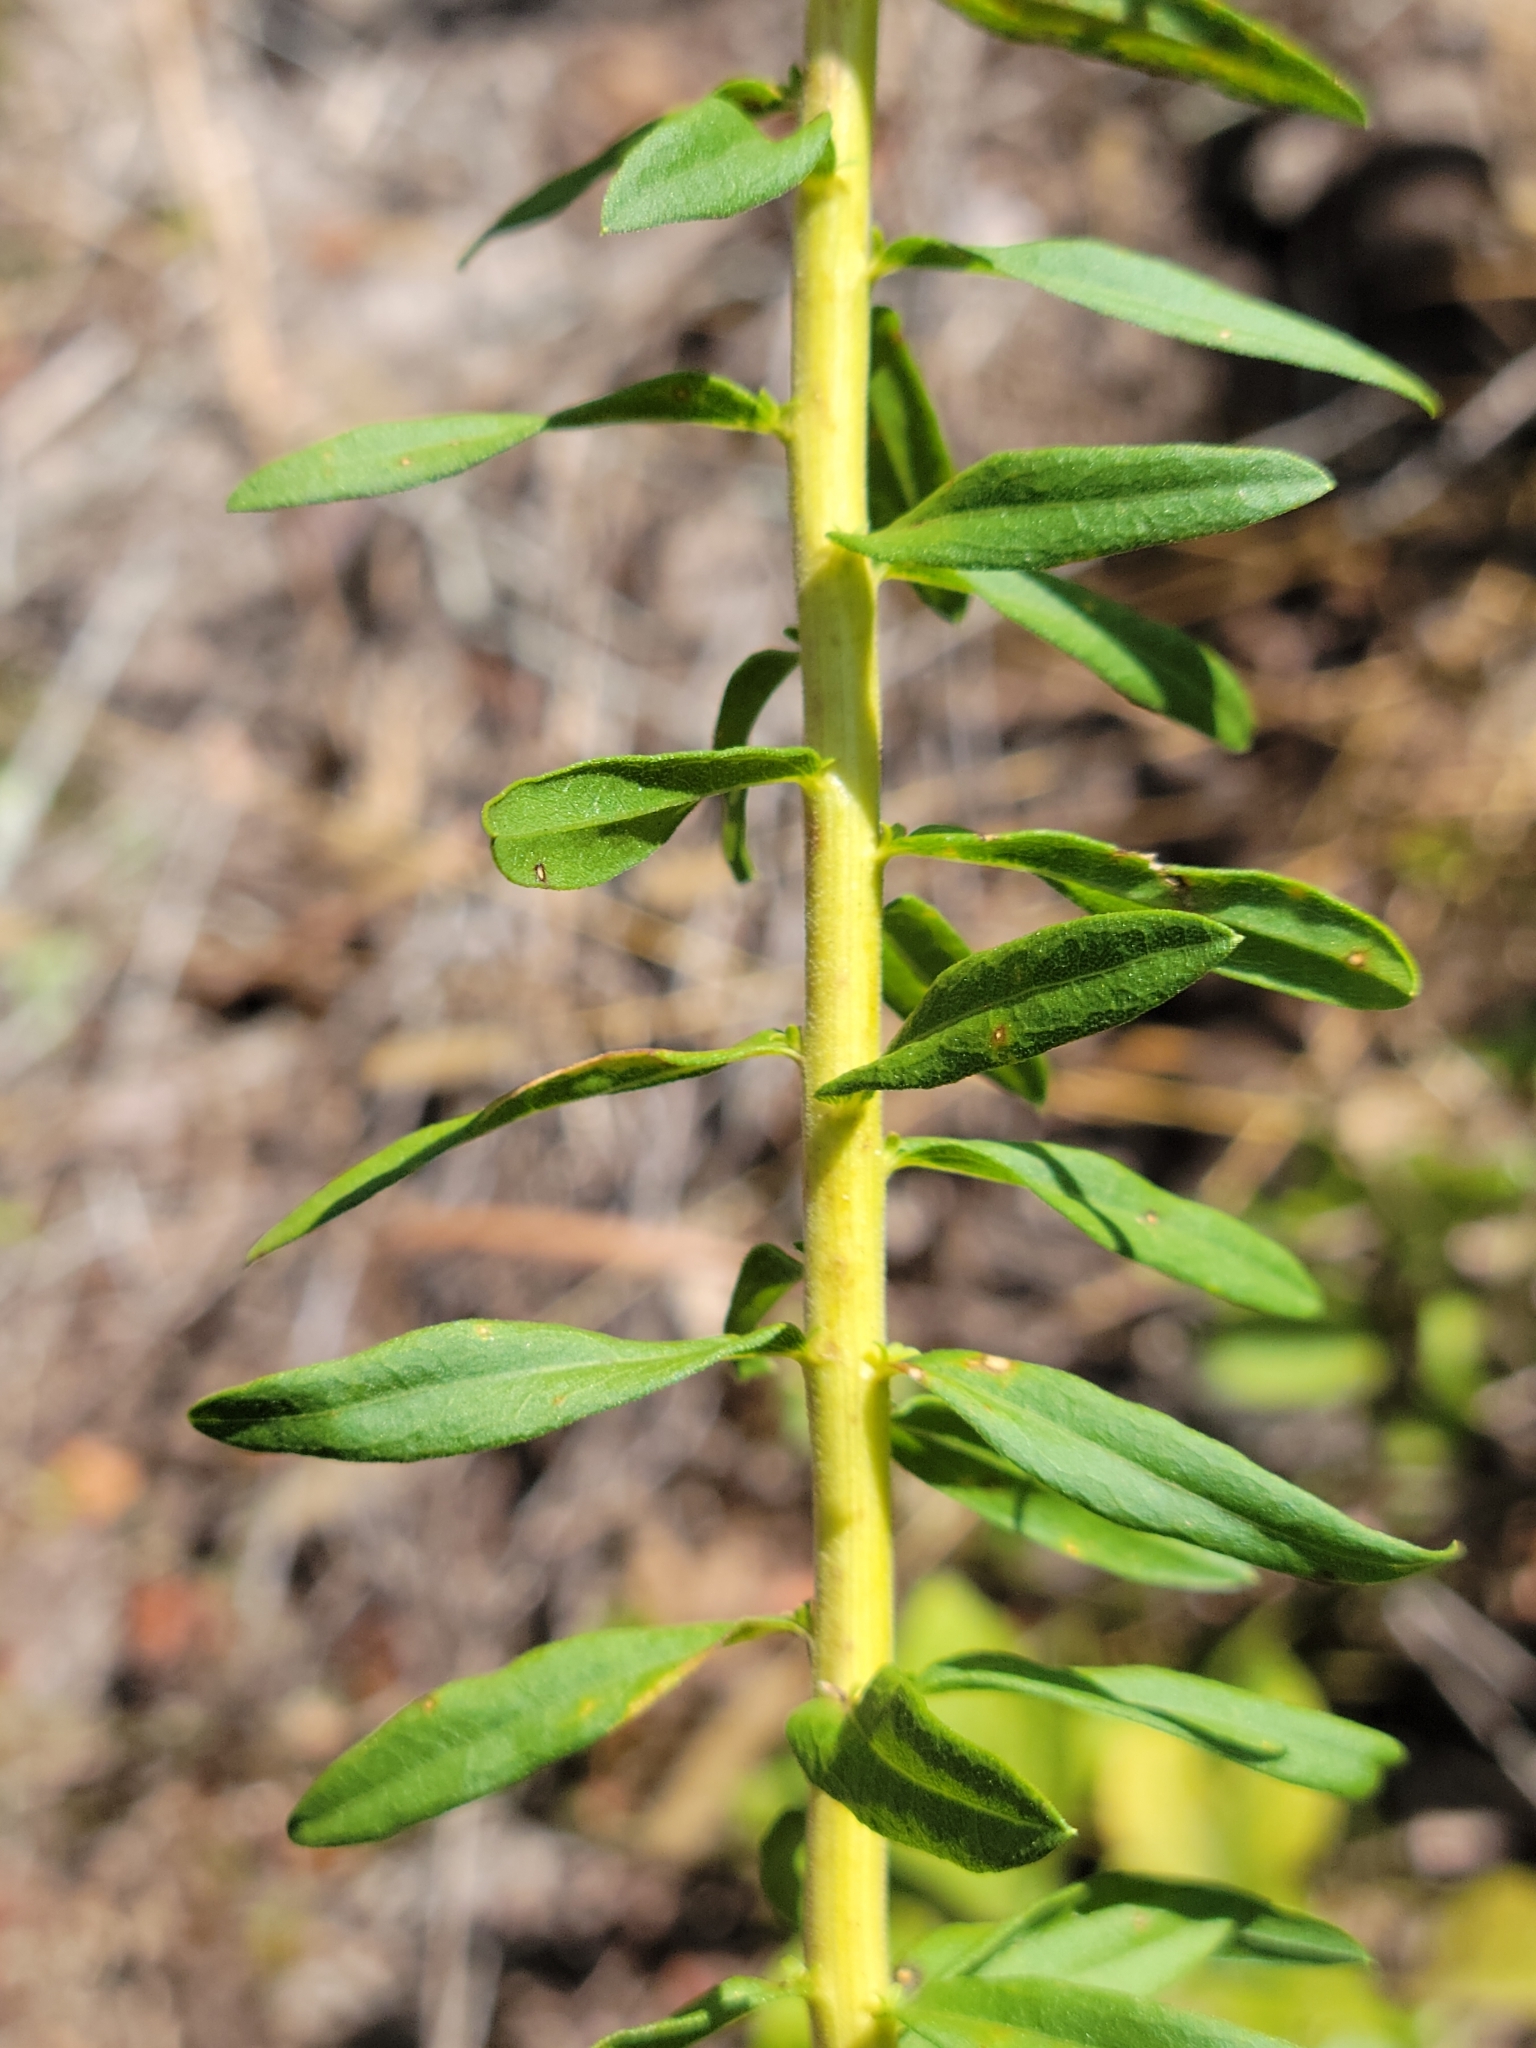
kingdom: Plantae
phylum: Tracheophyta
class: Magnoliopsida
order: Asterales
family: Asteraceae
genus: Solidago
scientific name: Solidago tortifolia
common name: Twisted-leaf goldenrod
